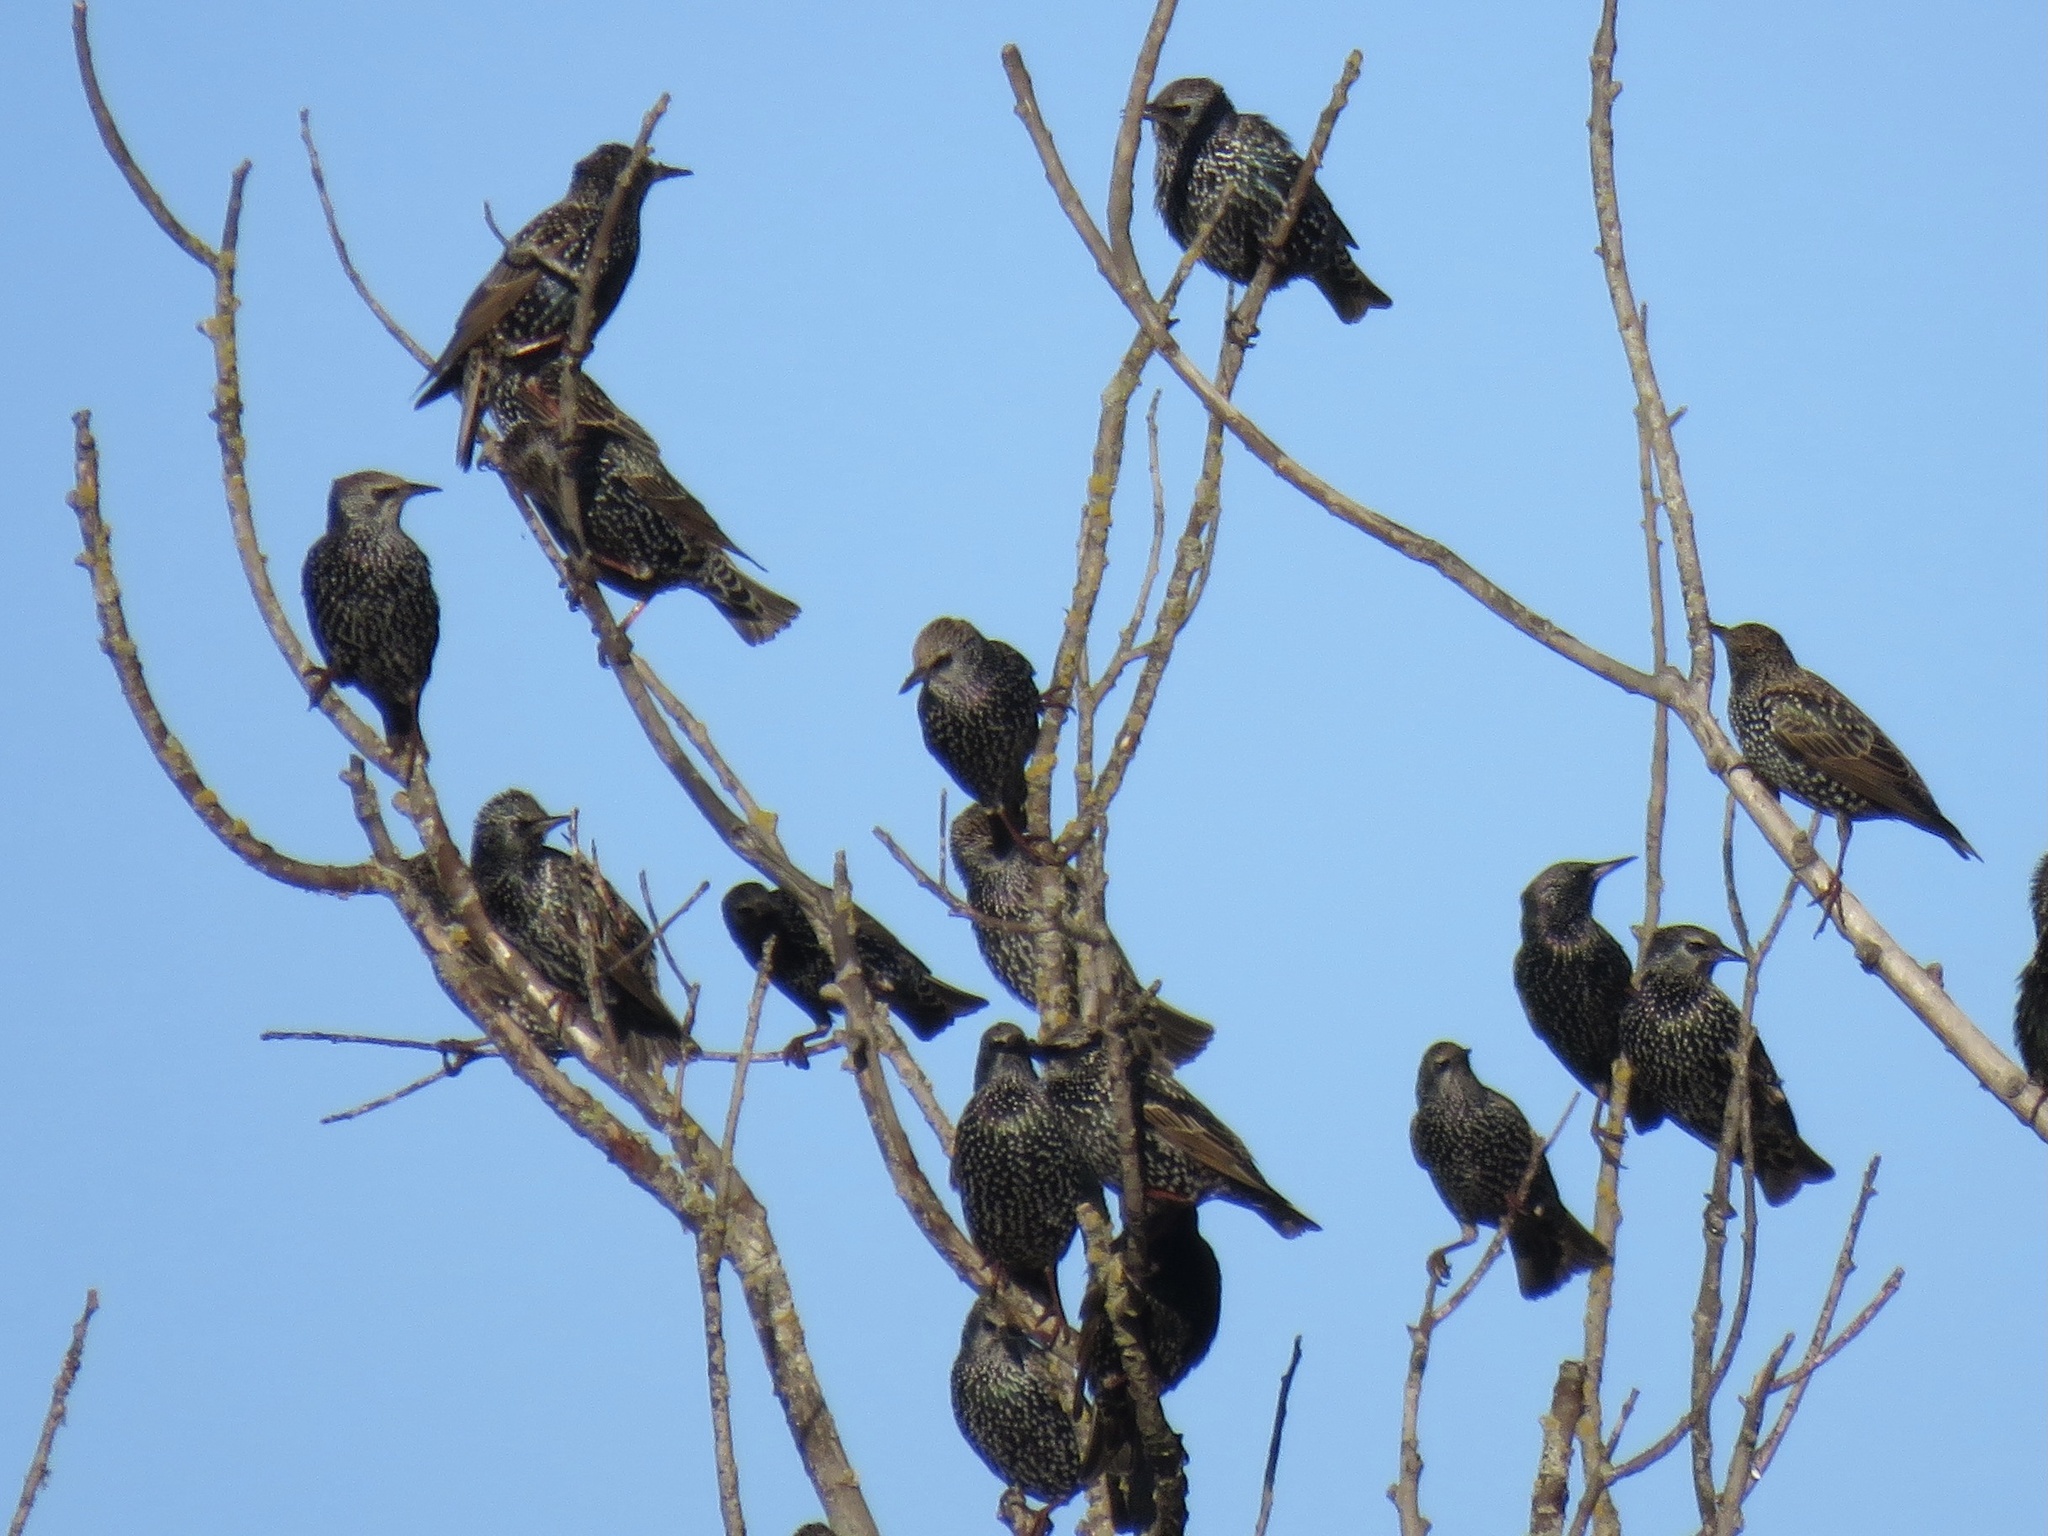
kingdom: Animalia
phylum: Chordata
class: Aves
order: Passeriformes
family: Sturnidae
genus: Sturnus
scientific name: Sturnus vulgaris
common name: Common starling
